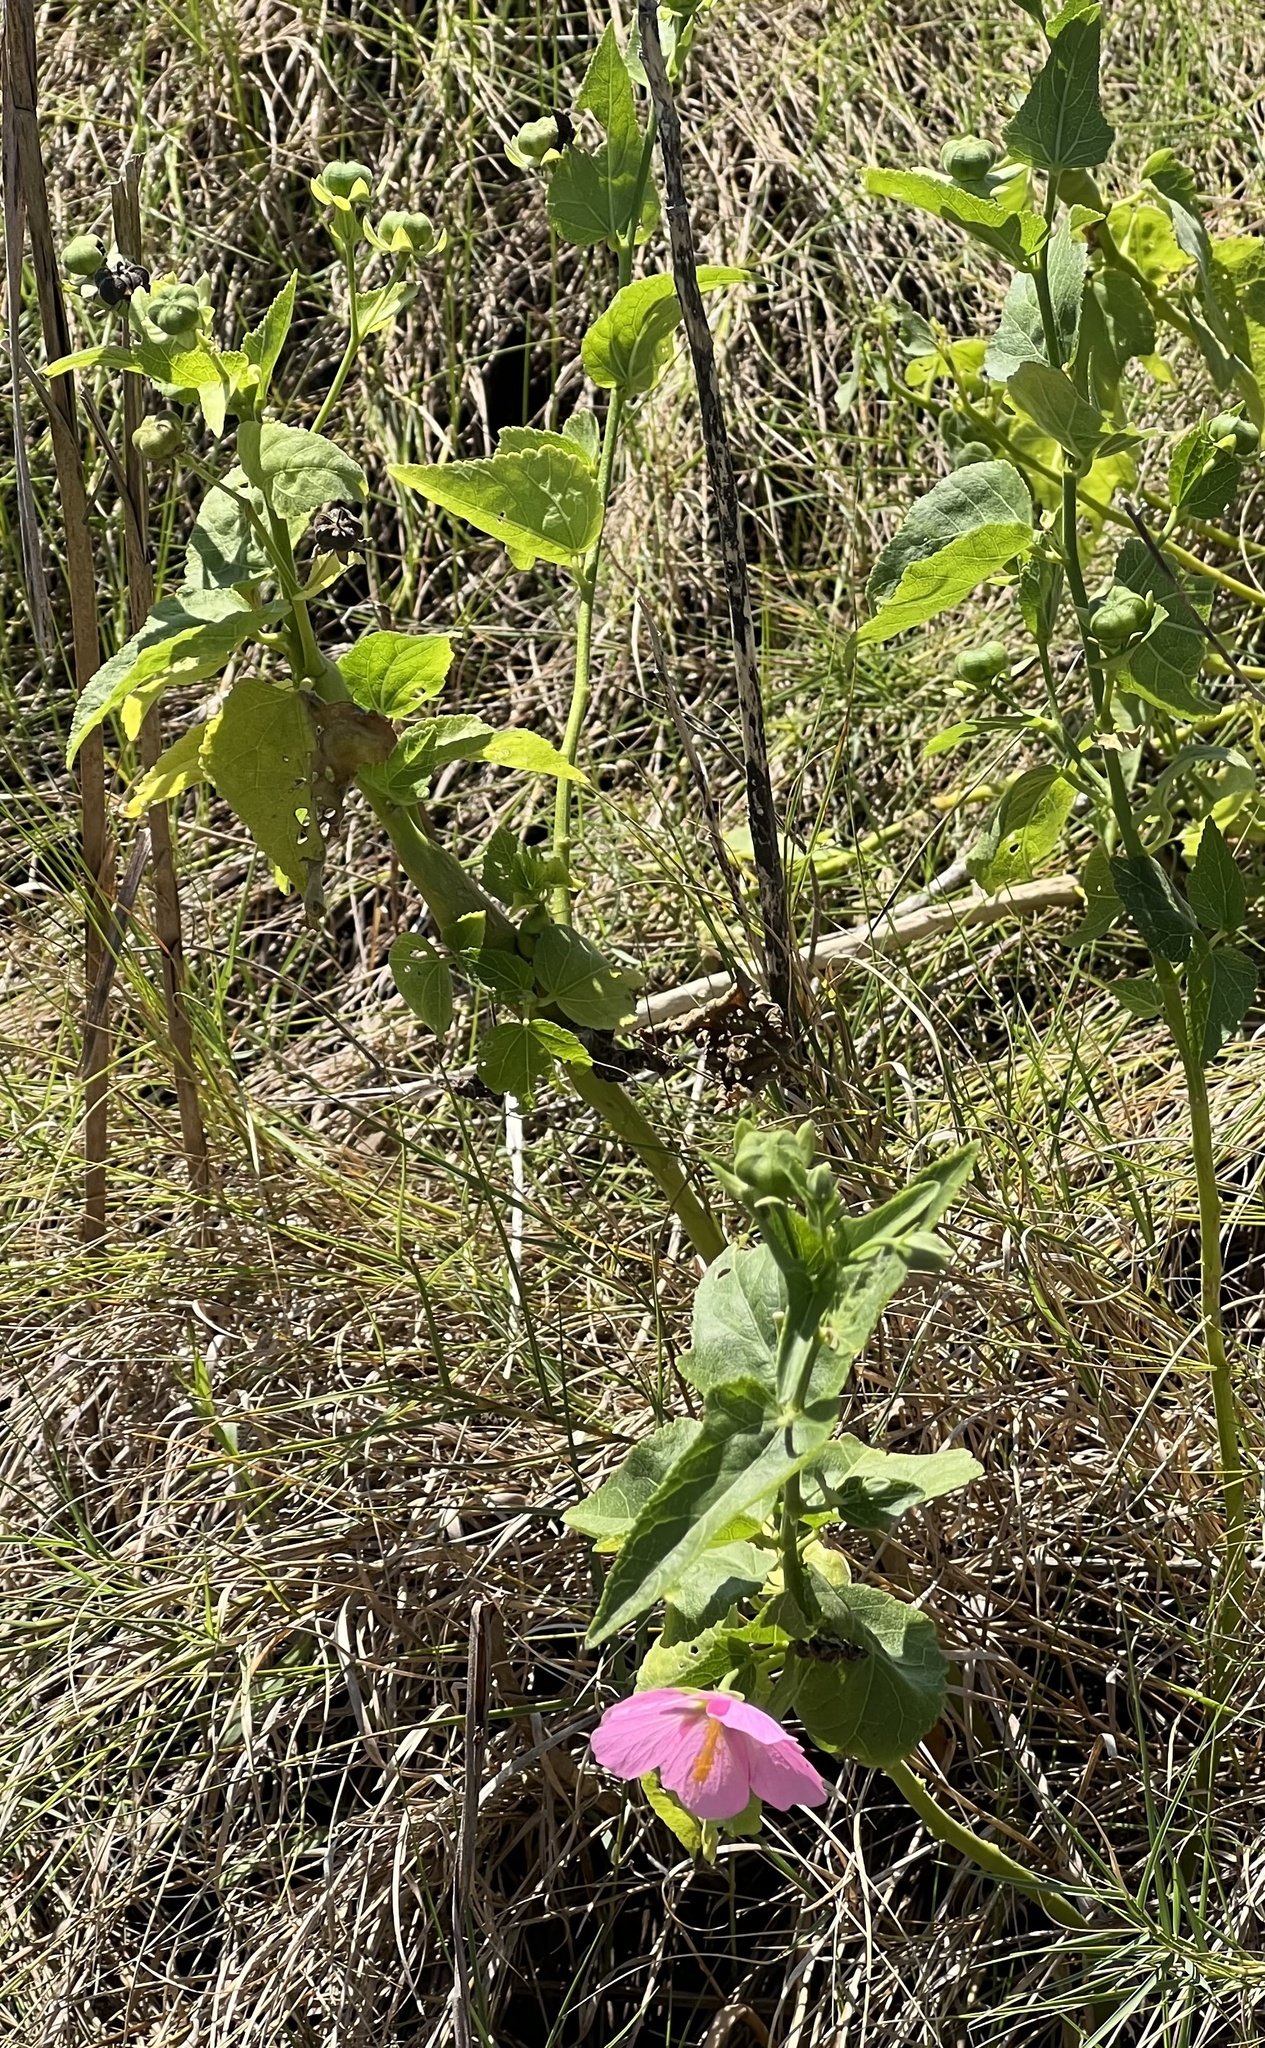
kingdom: Plantae
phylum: Tracheophyta
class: Magnoliopsida
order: Malvales
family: Malvaceae
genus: Kosteletzkya
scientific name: Kosteletzkya pentacarpos
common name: Virginia saltmarsh mallow
